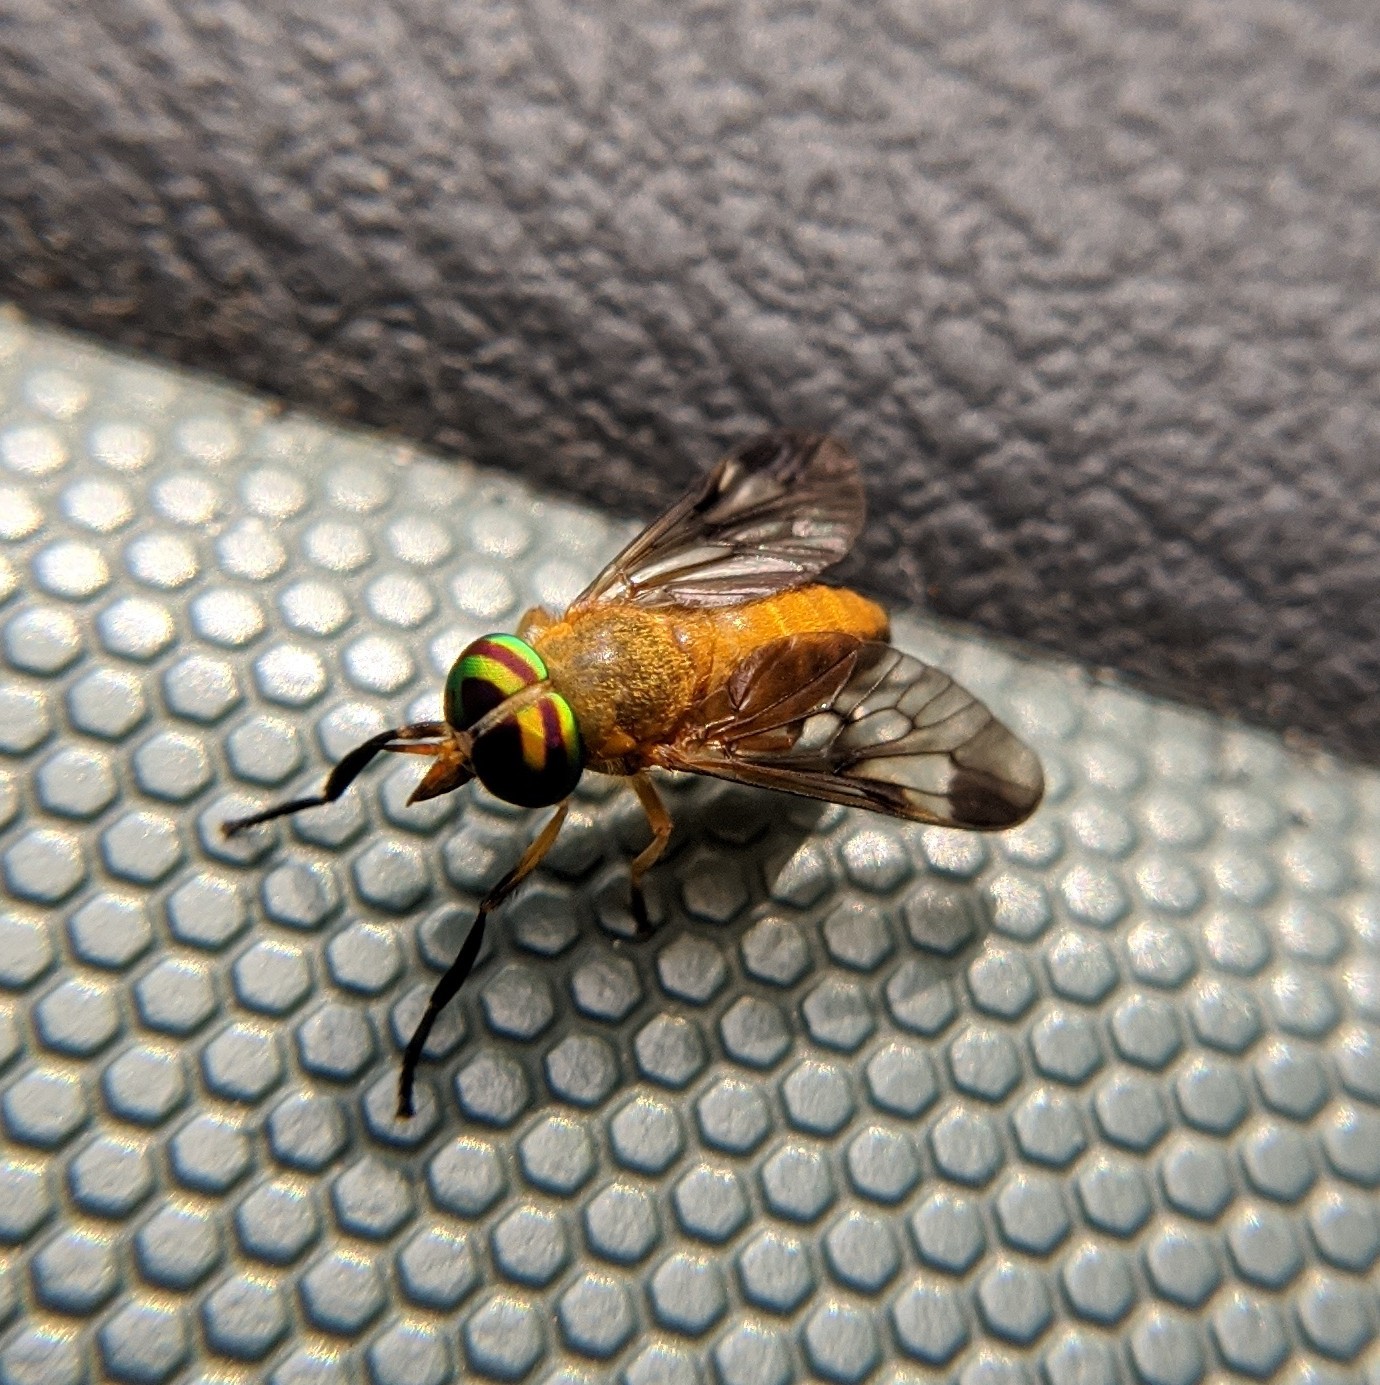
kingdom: Animalia
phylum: Arthropoda
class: Insecta
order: Diptera
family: Tabanidae
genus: Diachlorus
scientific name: Diachlorus ferrugatus
